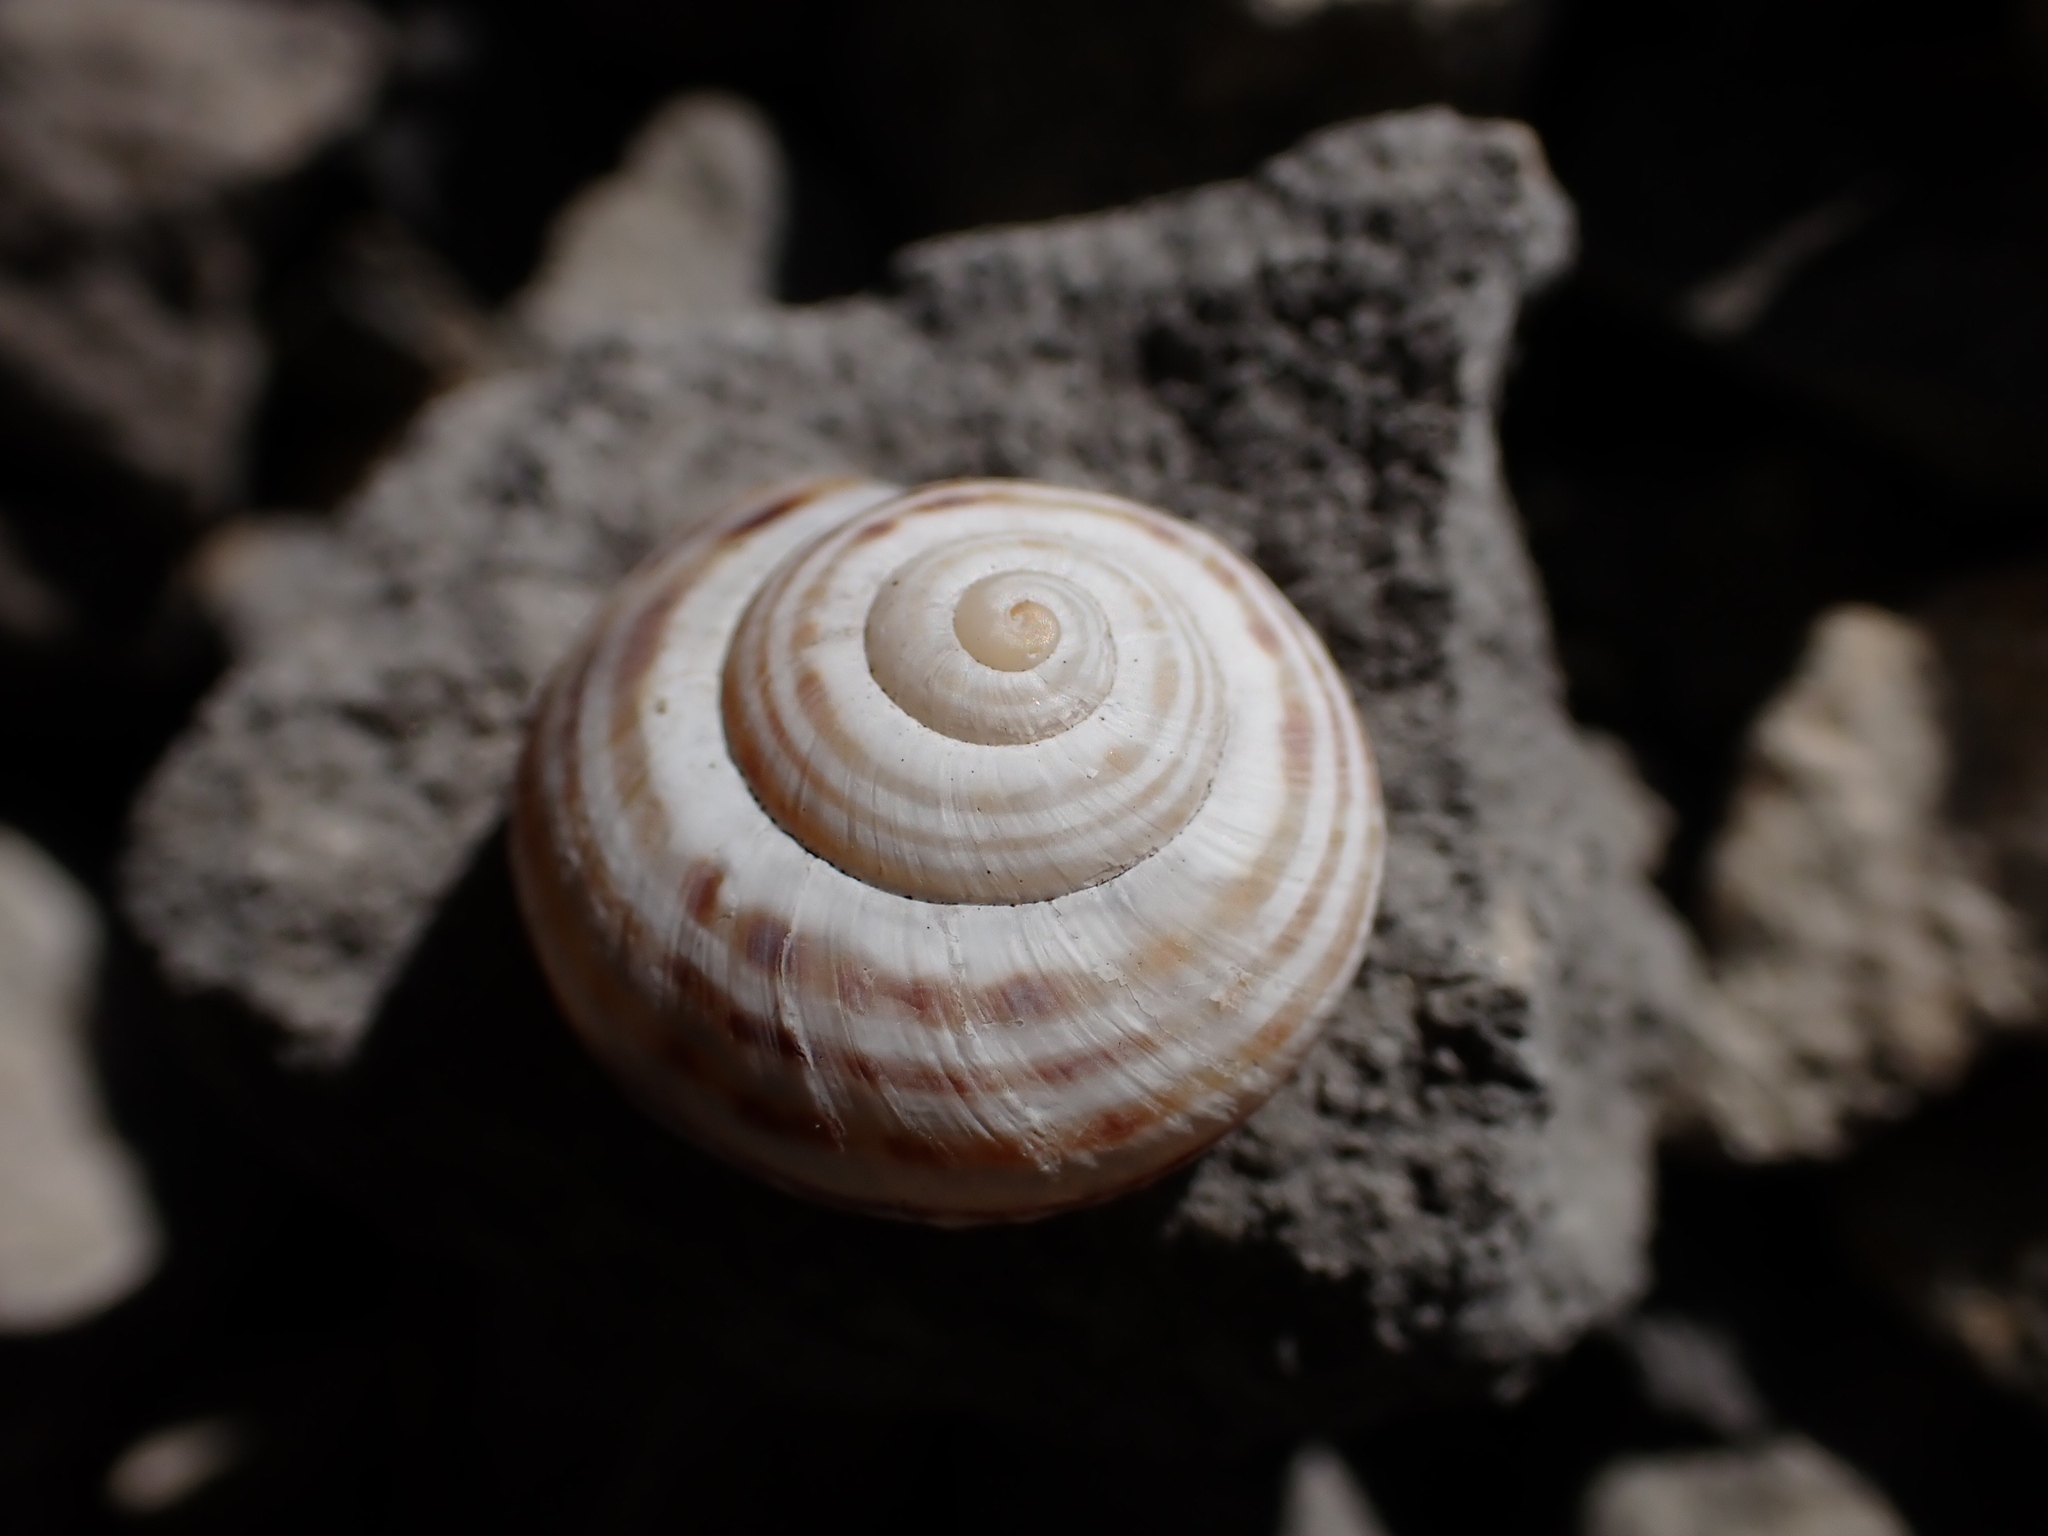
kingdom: Animalia
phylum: Mollusca
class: Gastropoda
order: Stylommatophora
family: Helicidae
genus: Pseudotachea
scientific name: Pseudotachea splendida
